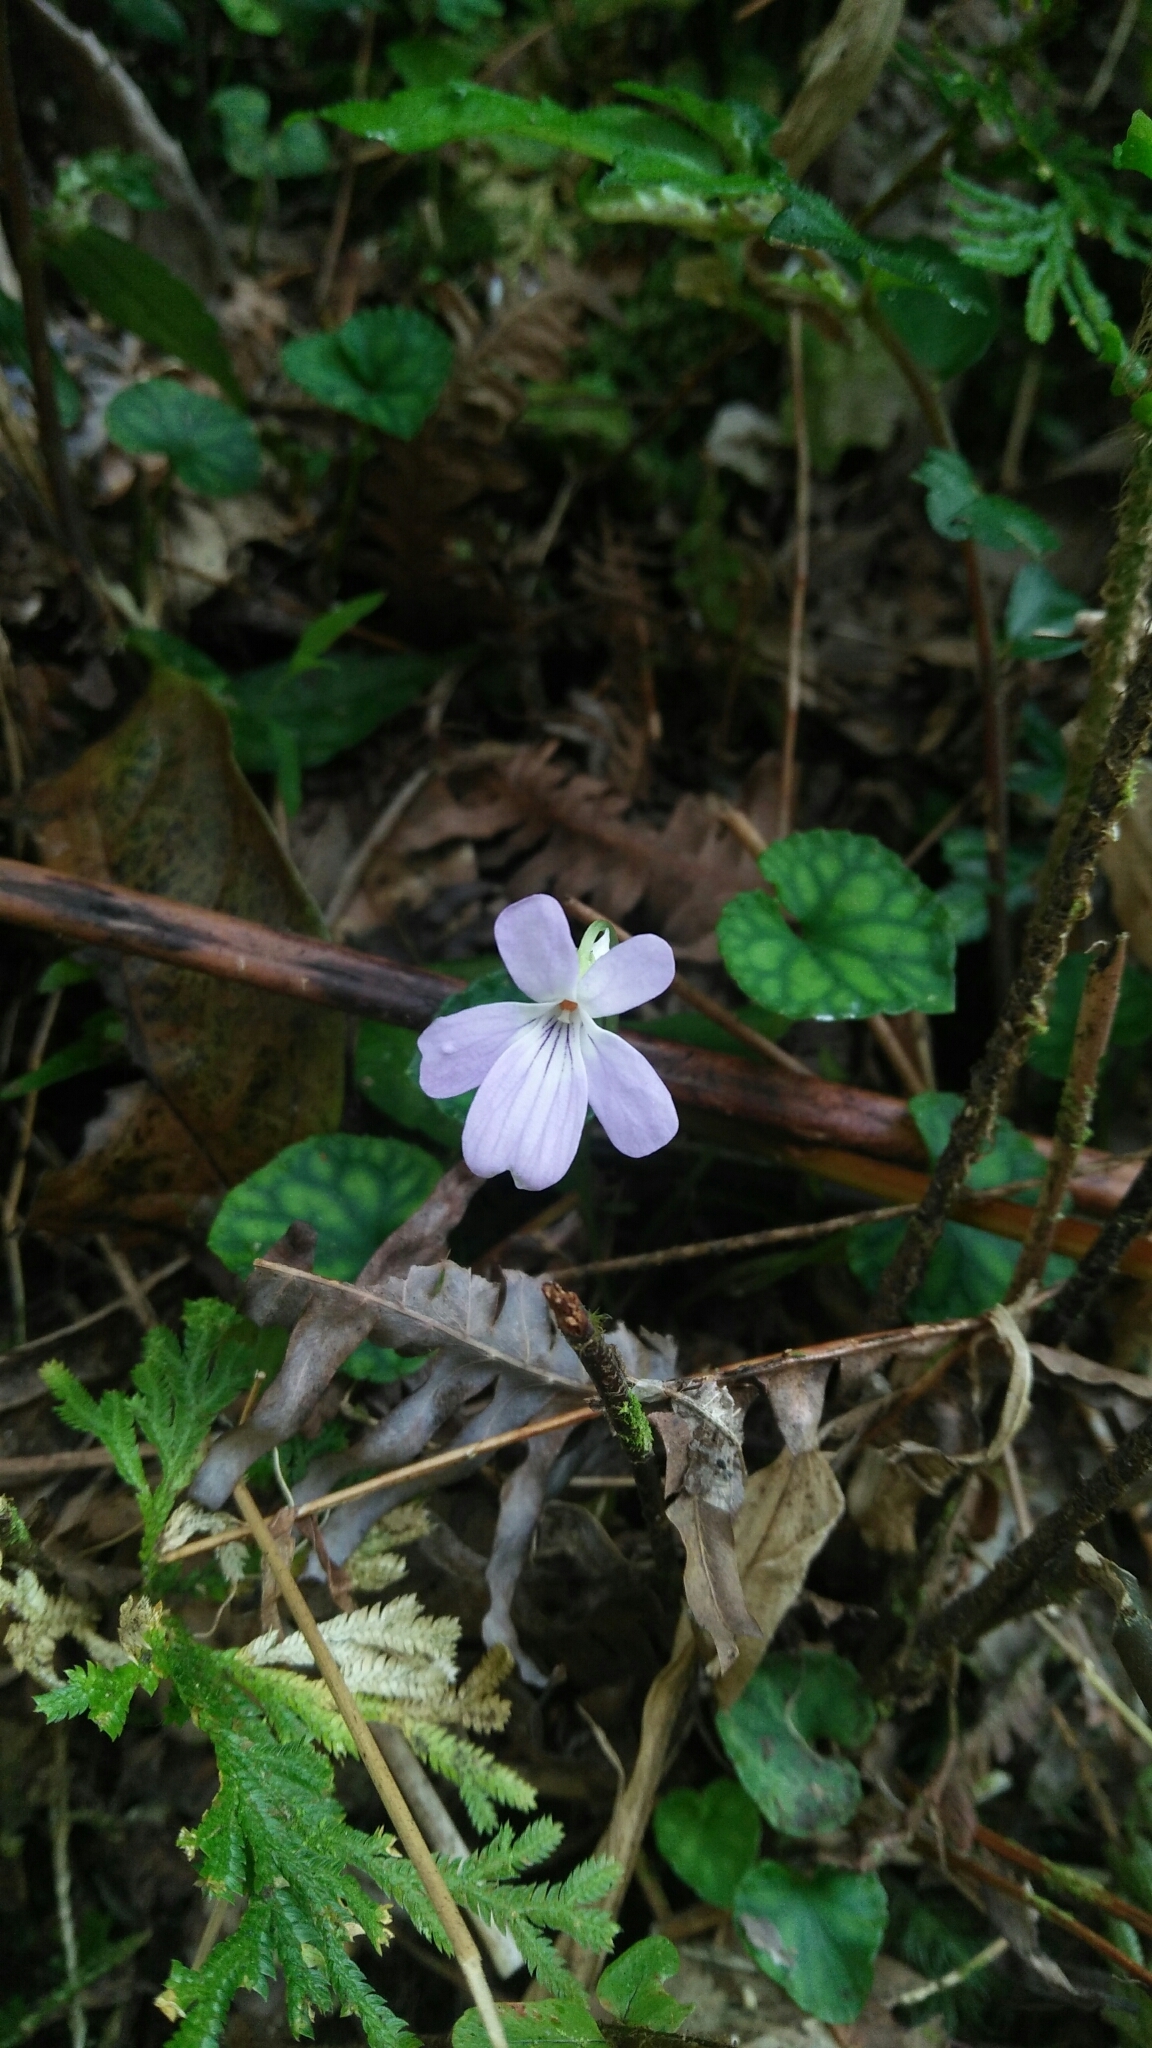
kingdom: Plantae
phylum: Tracheophyta
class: Magnoliopsida
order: Malpighiales
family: Violaceae
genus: Viola
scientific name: Viola formosana
